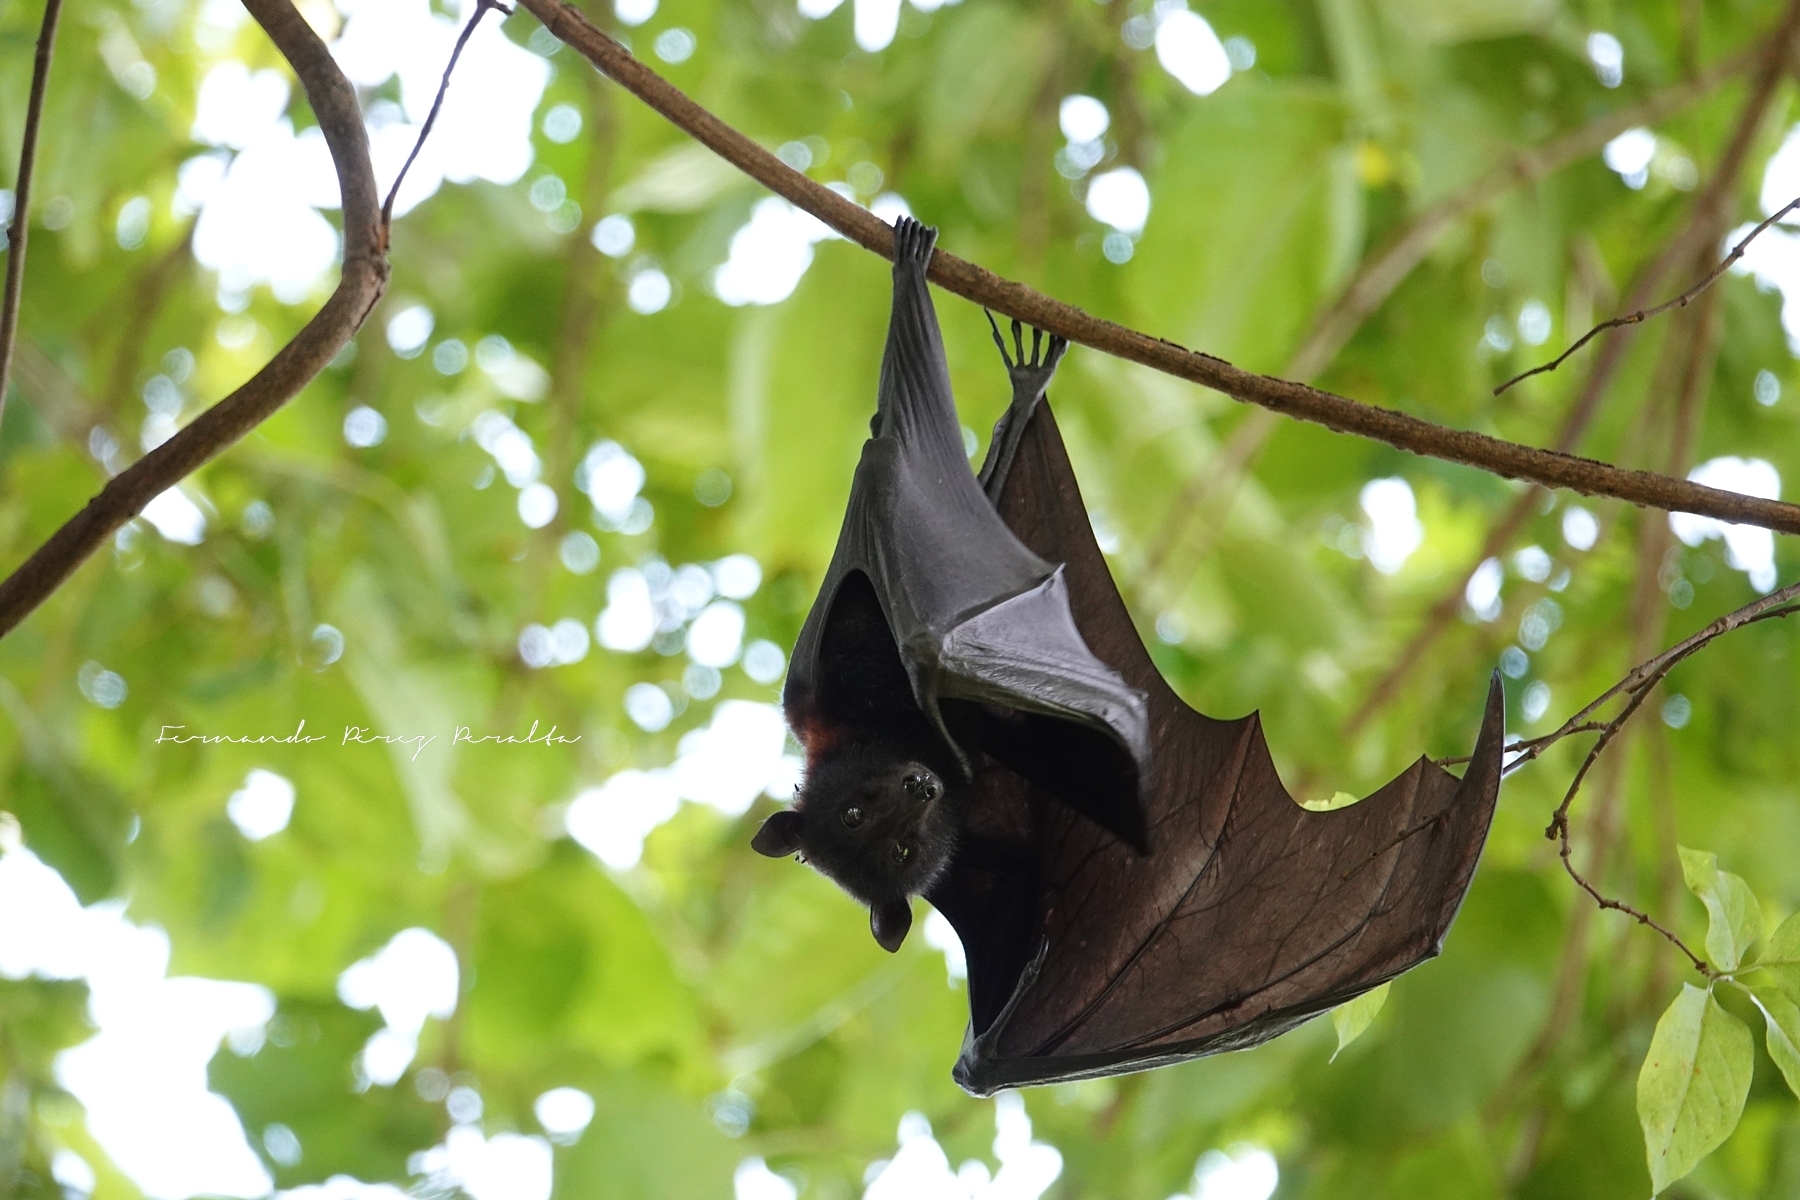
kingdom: Animalia
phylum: Chordata
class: Mammalia
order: Chiroptera
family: Pteropodidae
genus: Pteropus
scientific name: Pteropus alecto
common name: Black flying fox
